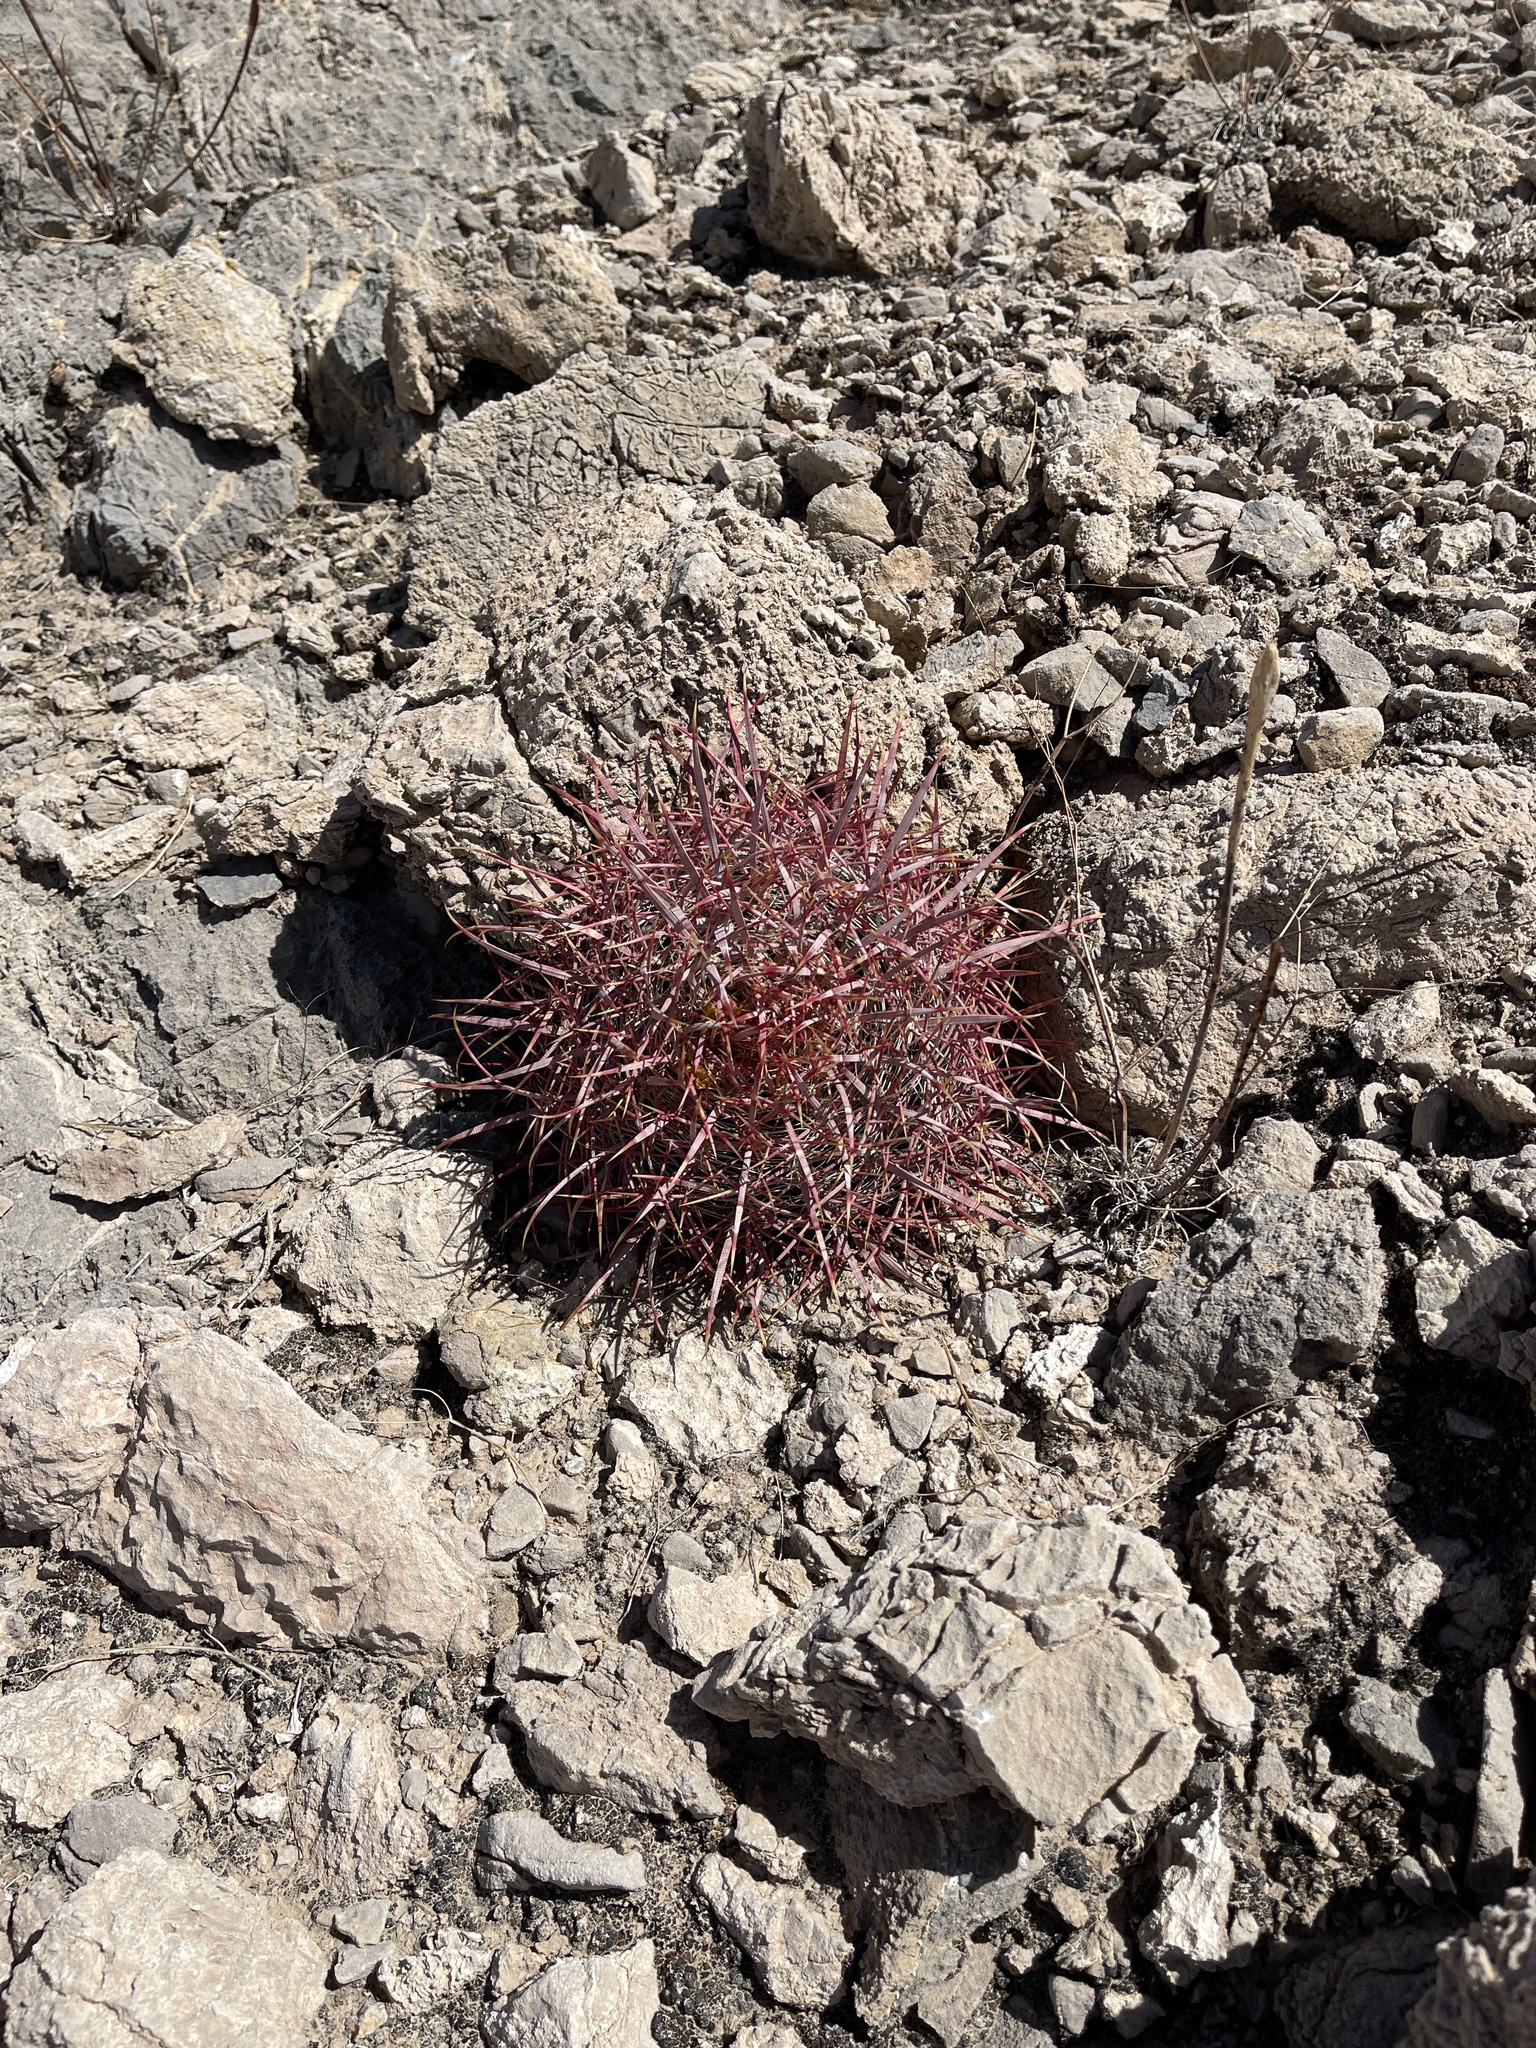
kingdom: Plantae
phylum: Tracheophyta
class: Magnoliopsida
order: Caryophyllales
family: Cactaceae
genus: Ferocactus
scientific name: Ferocactus cylindraceus
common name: California barrel cactus
